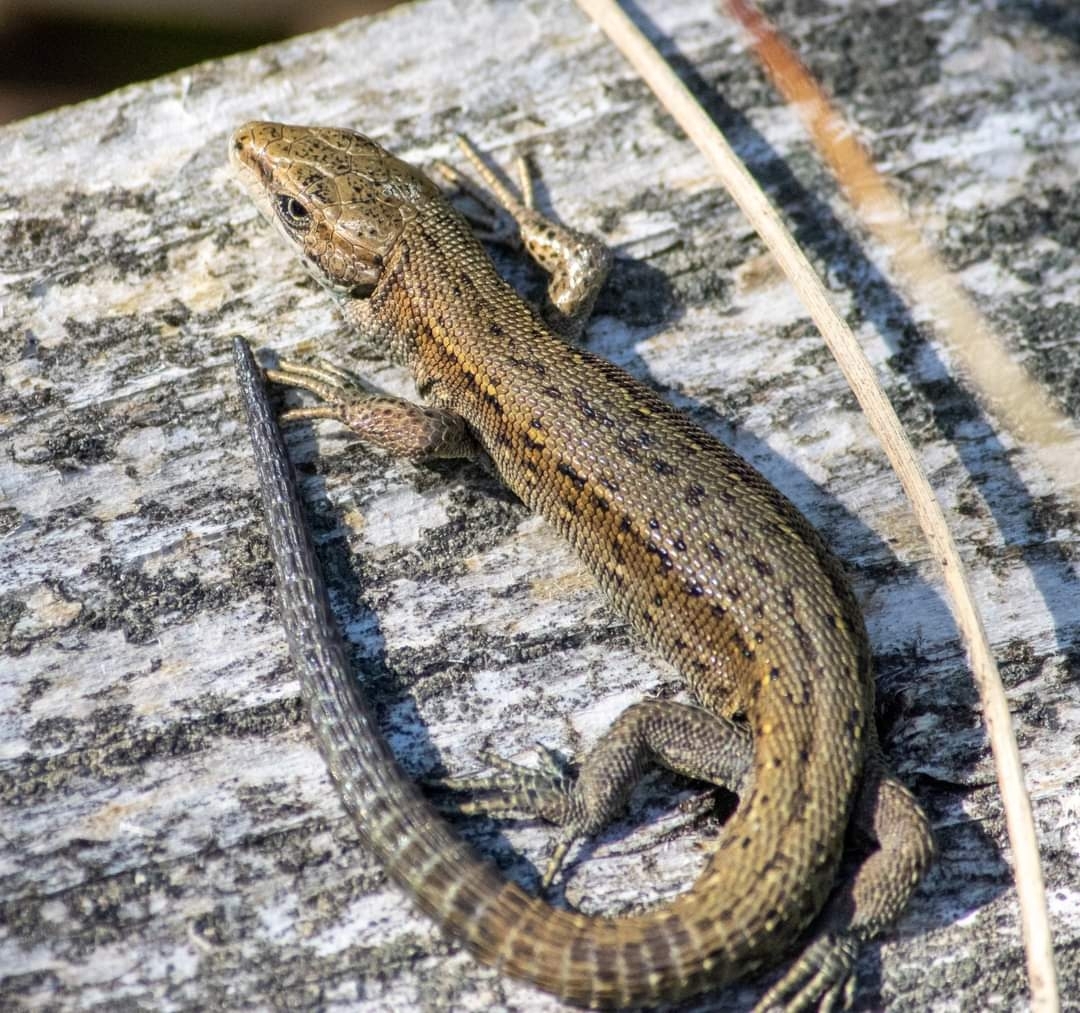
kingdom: Animalia
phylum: Chordata
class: Squamata
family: Lacertidae
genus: Zootoca
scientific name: Zootoca vivipara
